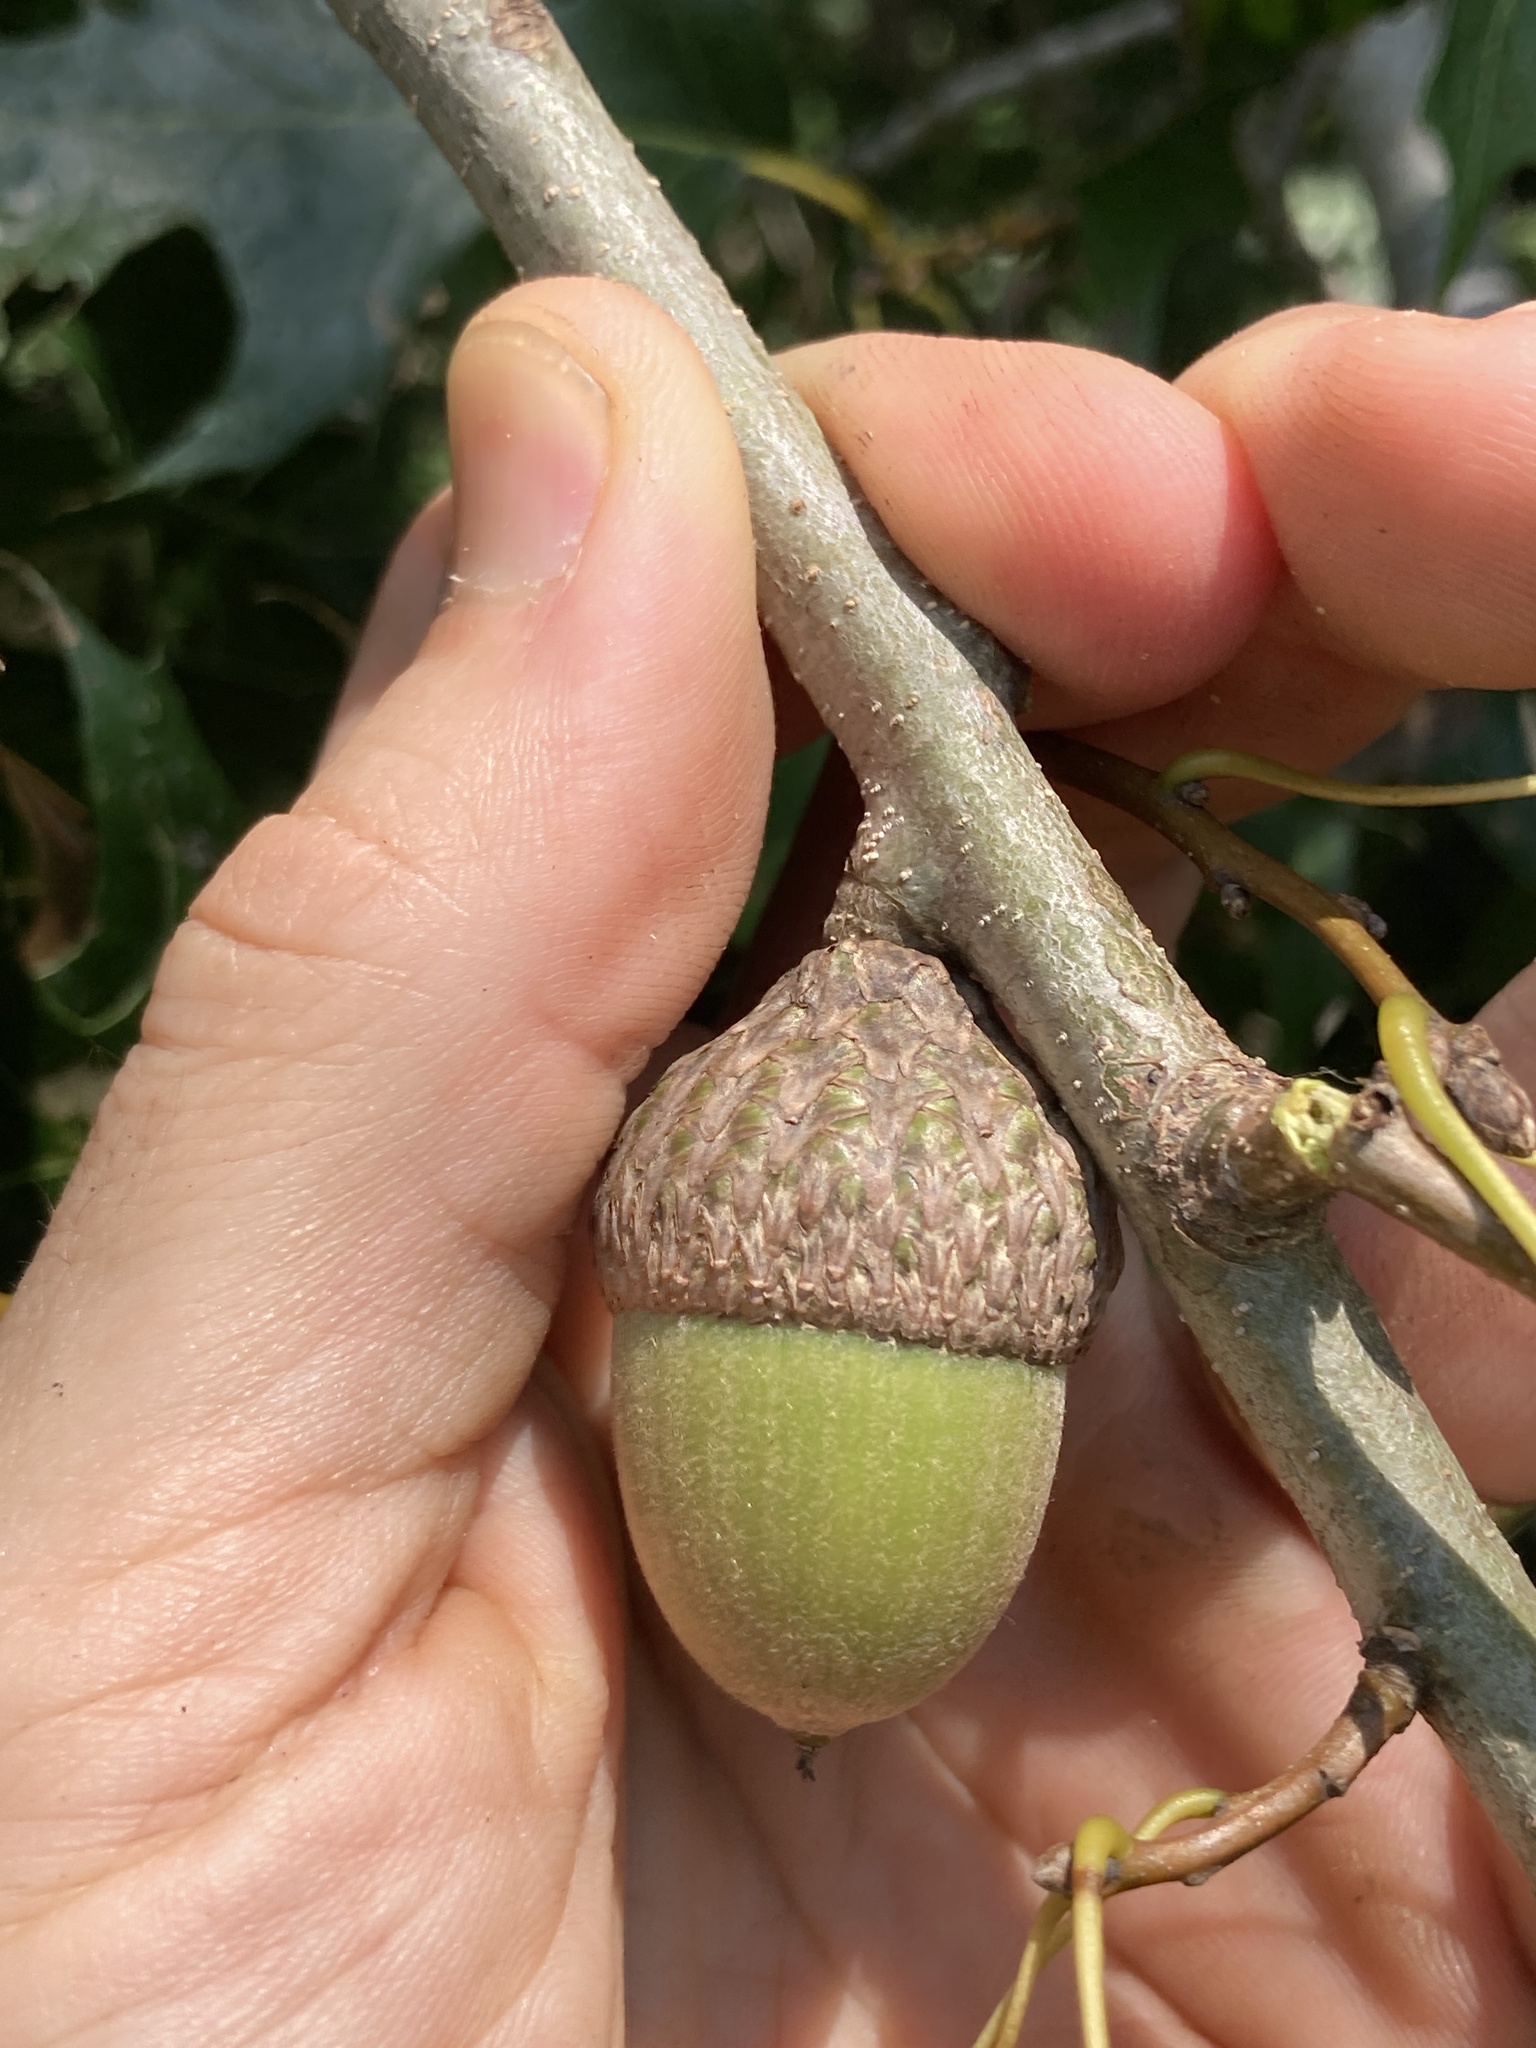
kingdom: Plantae
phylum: Tracheophyta
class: Magnoliopsida
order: Fagales
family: Fagaceae
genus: Quercus
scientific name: Quercus texana
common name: Nuttall oak
